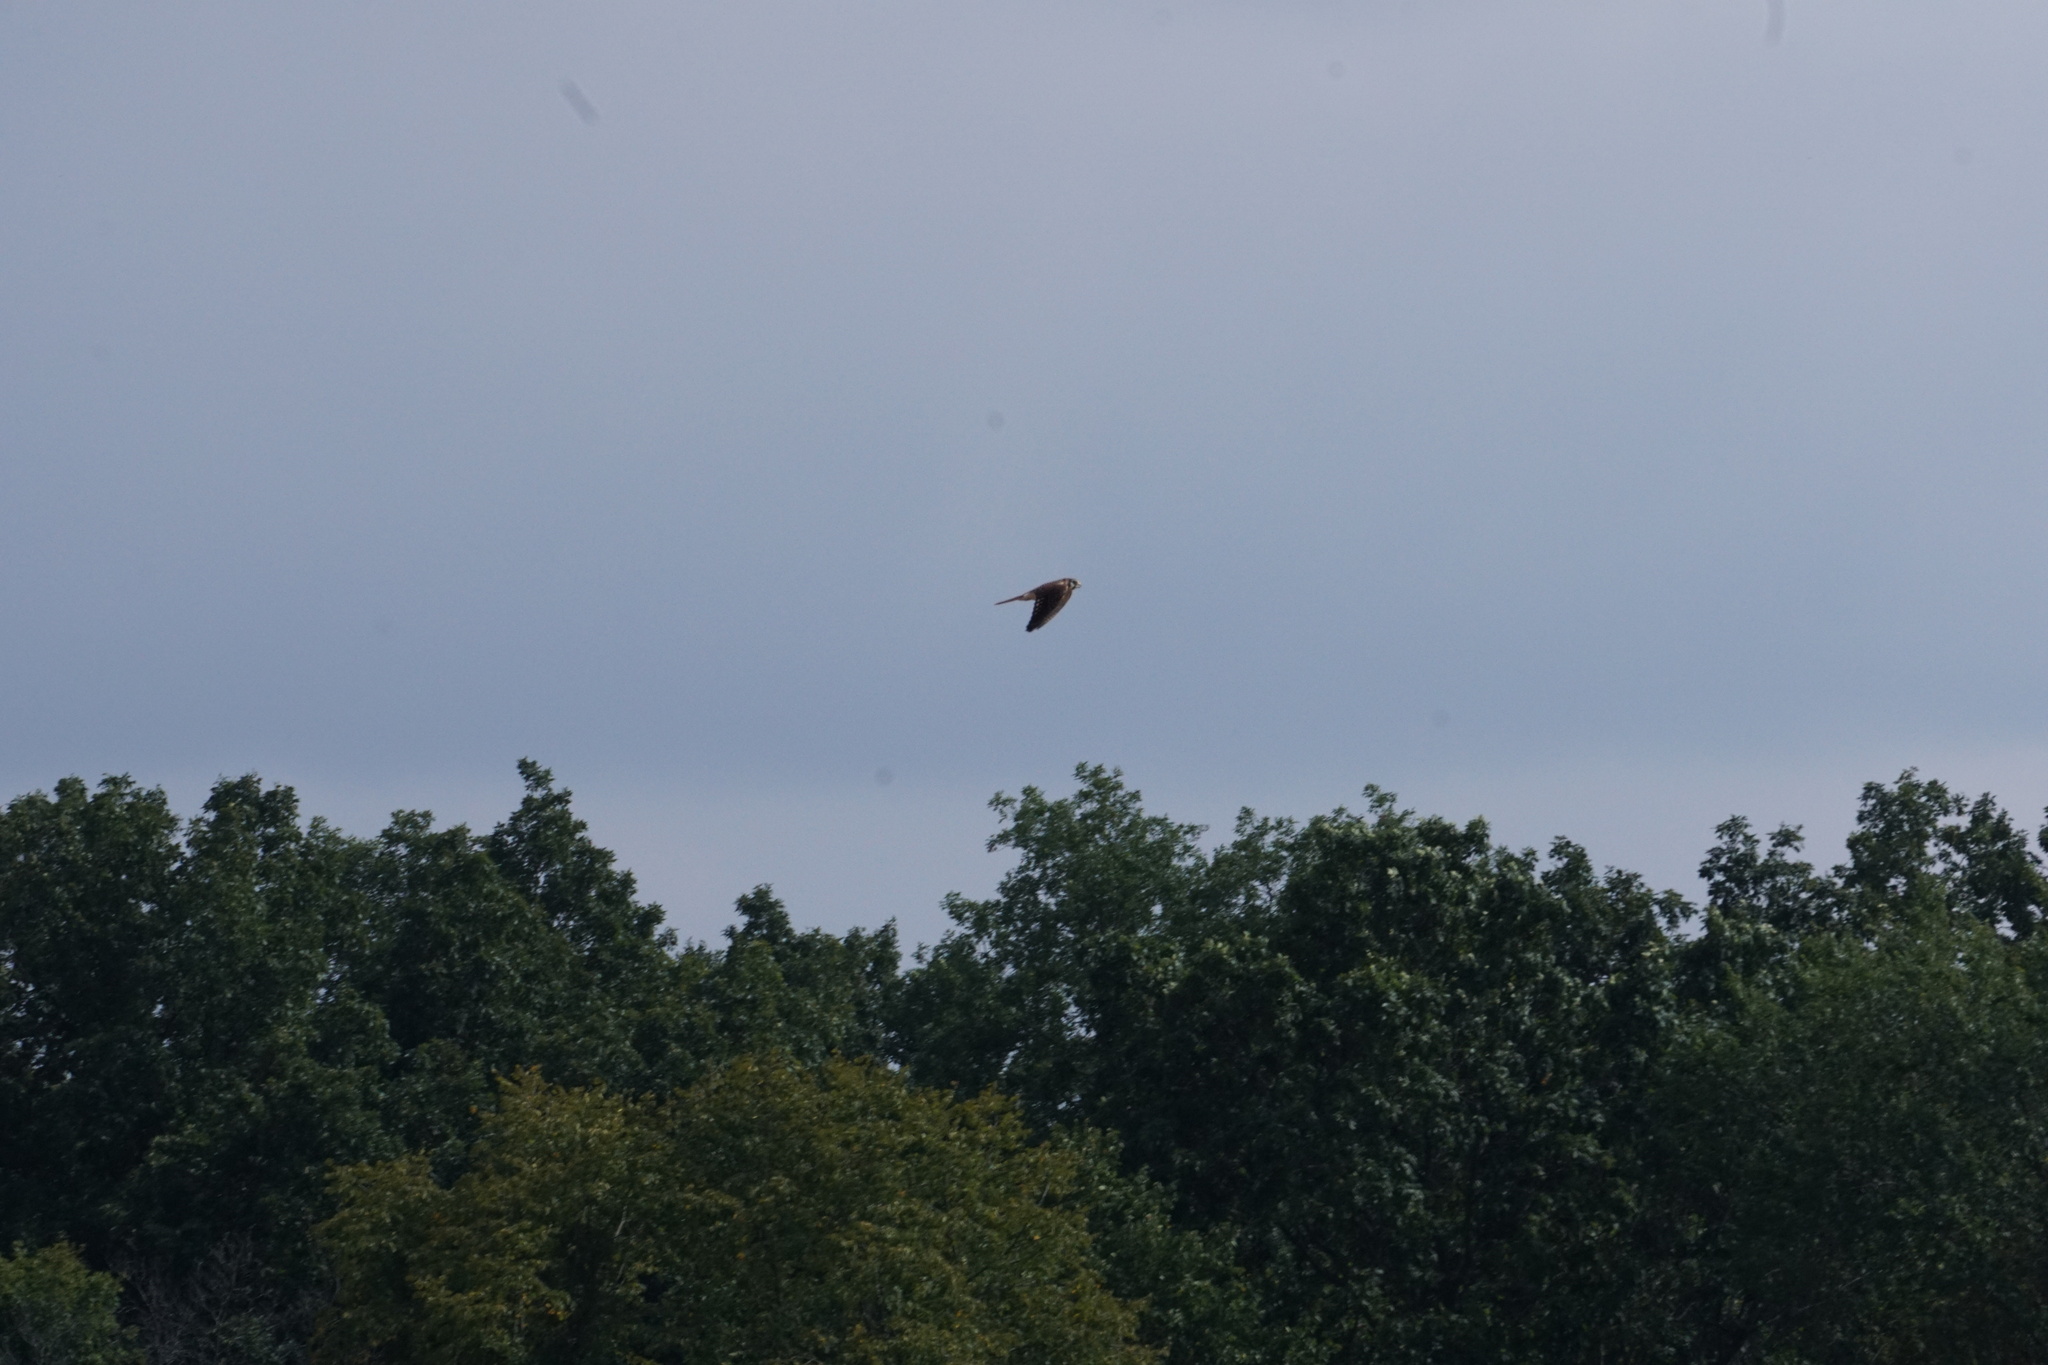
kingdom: Animalia
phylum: Chordata
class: Aves
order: Falconiformes
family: Falconidae
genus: Falco
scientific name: Falco sparverius
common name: American kestrel
